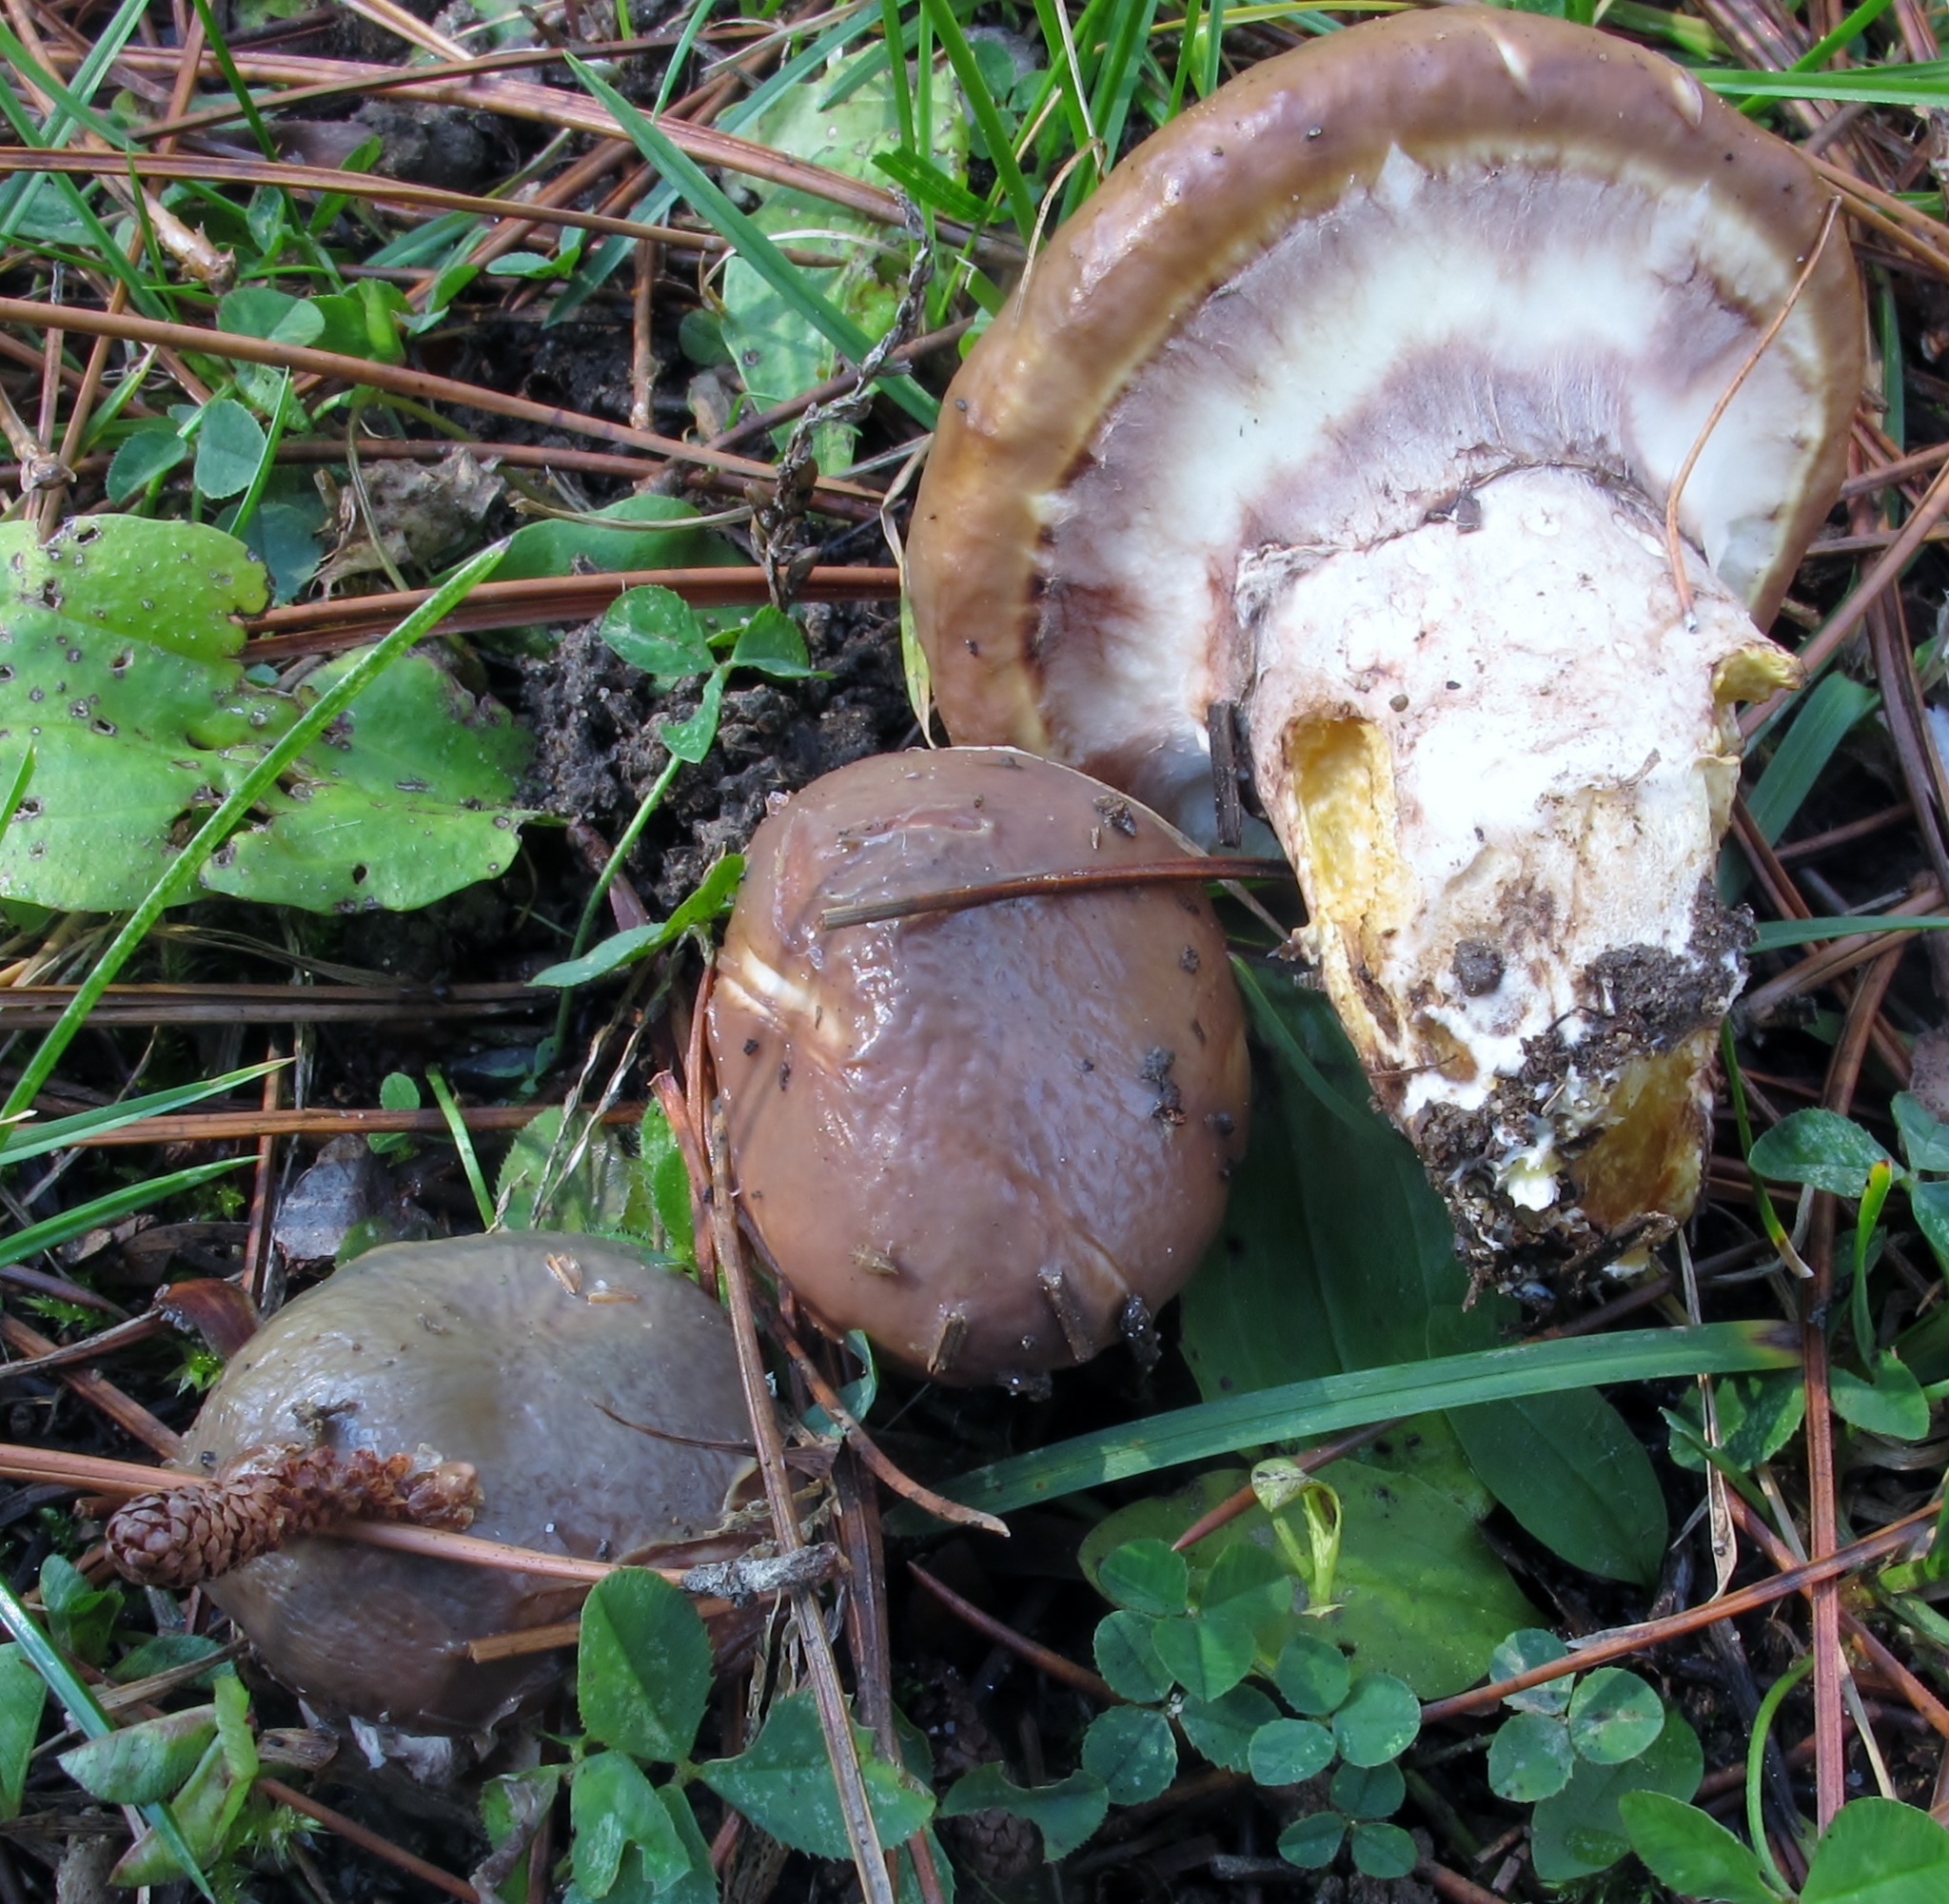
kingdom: Fungi
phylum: Basidiomycota
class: Agaricomycetes
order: Boletales
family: Suillaceae
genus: Suillus
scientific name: Suillus luteus
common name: Slippery jack
